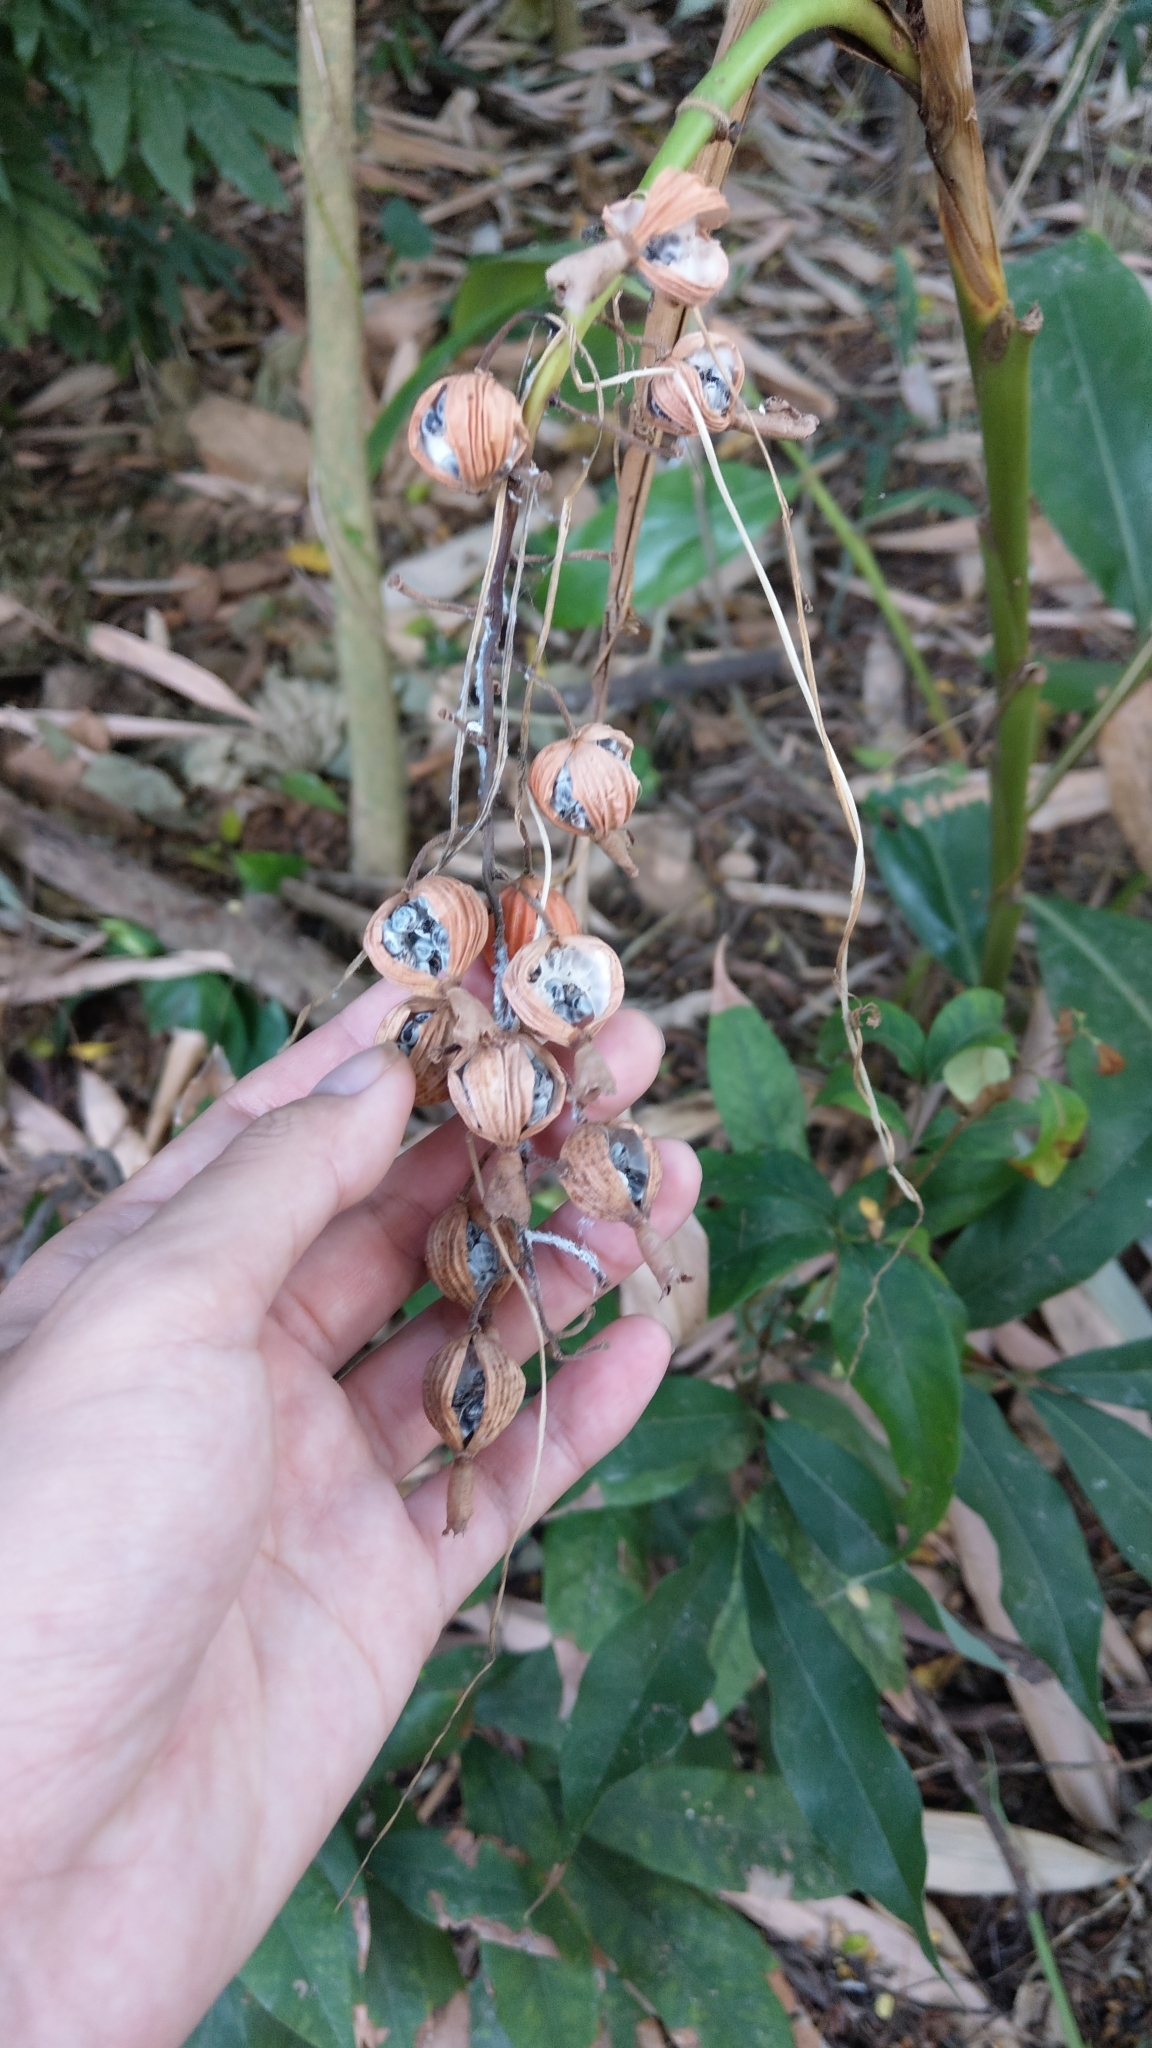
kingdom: Plantae
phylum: Tracheophyta
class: Liliopsida
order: Zingiberales
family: Zingiberaceae
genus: Alpinia
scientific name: Alpinia zerumbet
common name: Shellplant
